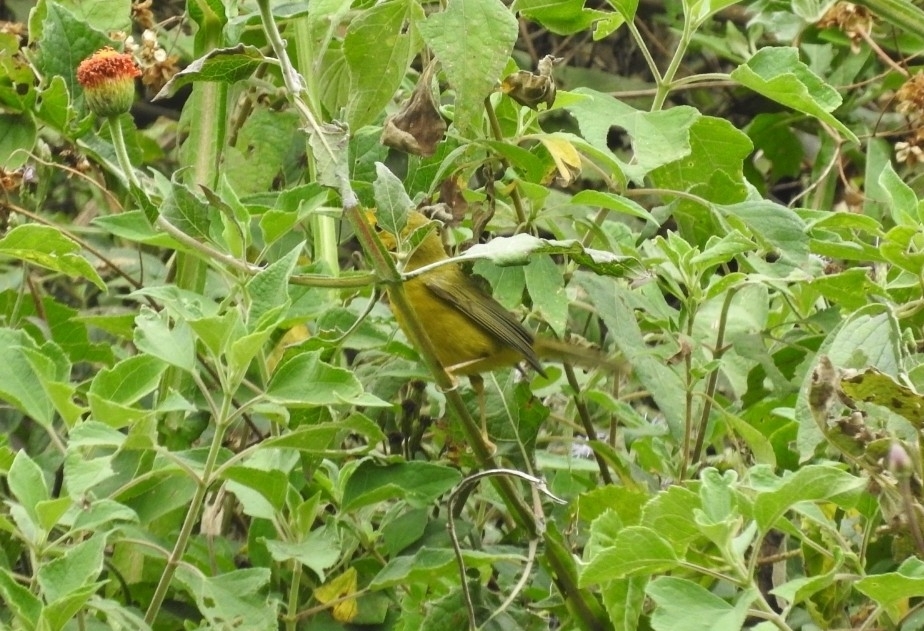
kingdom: Animalia
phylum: Chordata
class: Aves
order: Passeriformes
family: Parulidae
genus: Cardellina
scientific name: Cardellina pusilla
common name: Wilson's warbler
